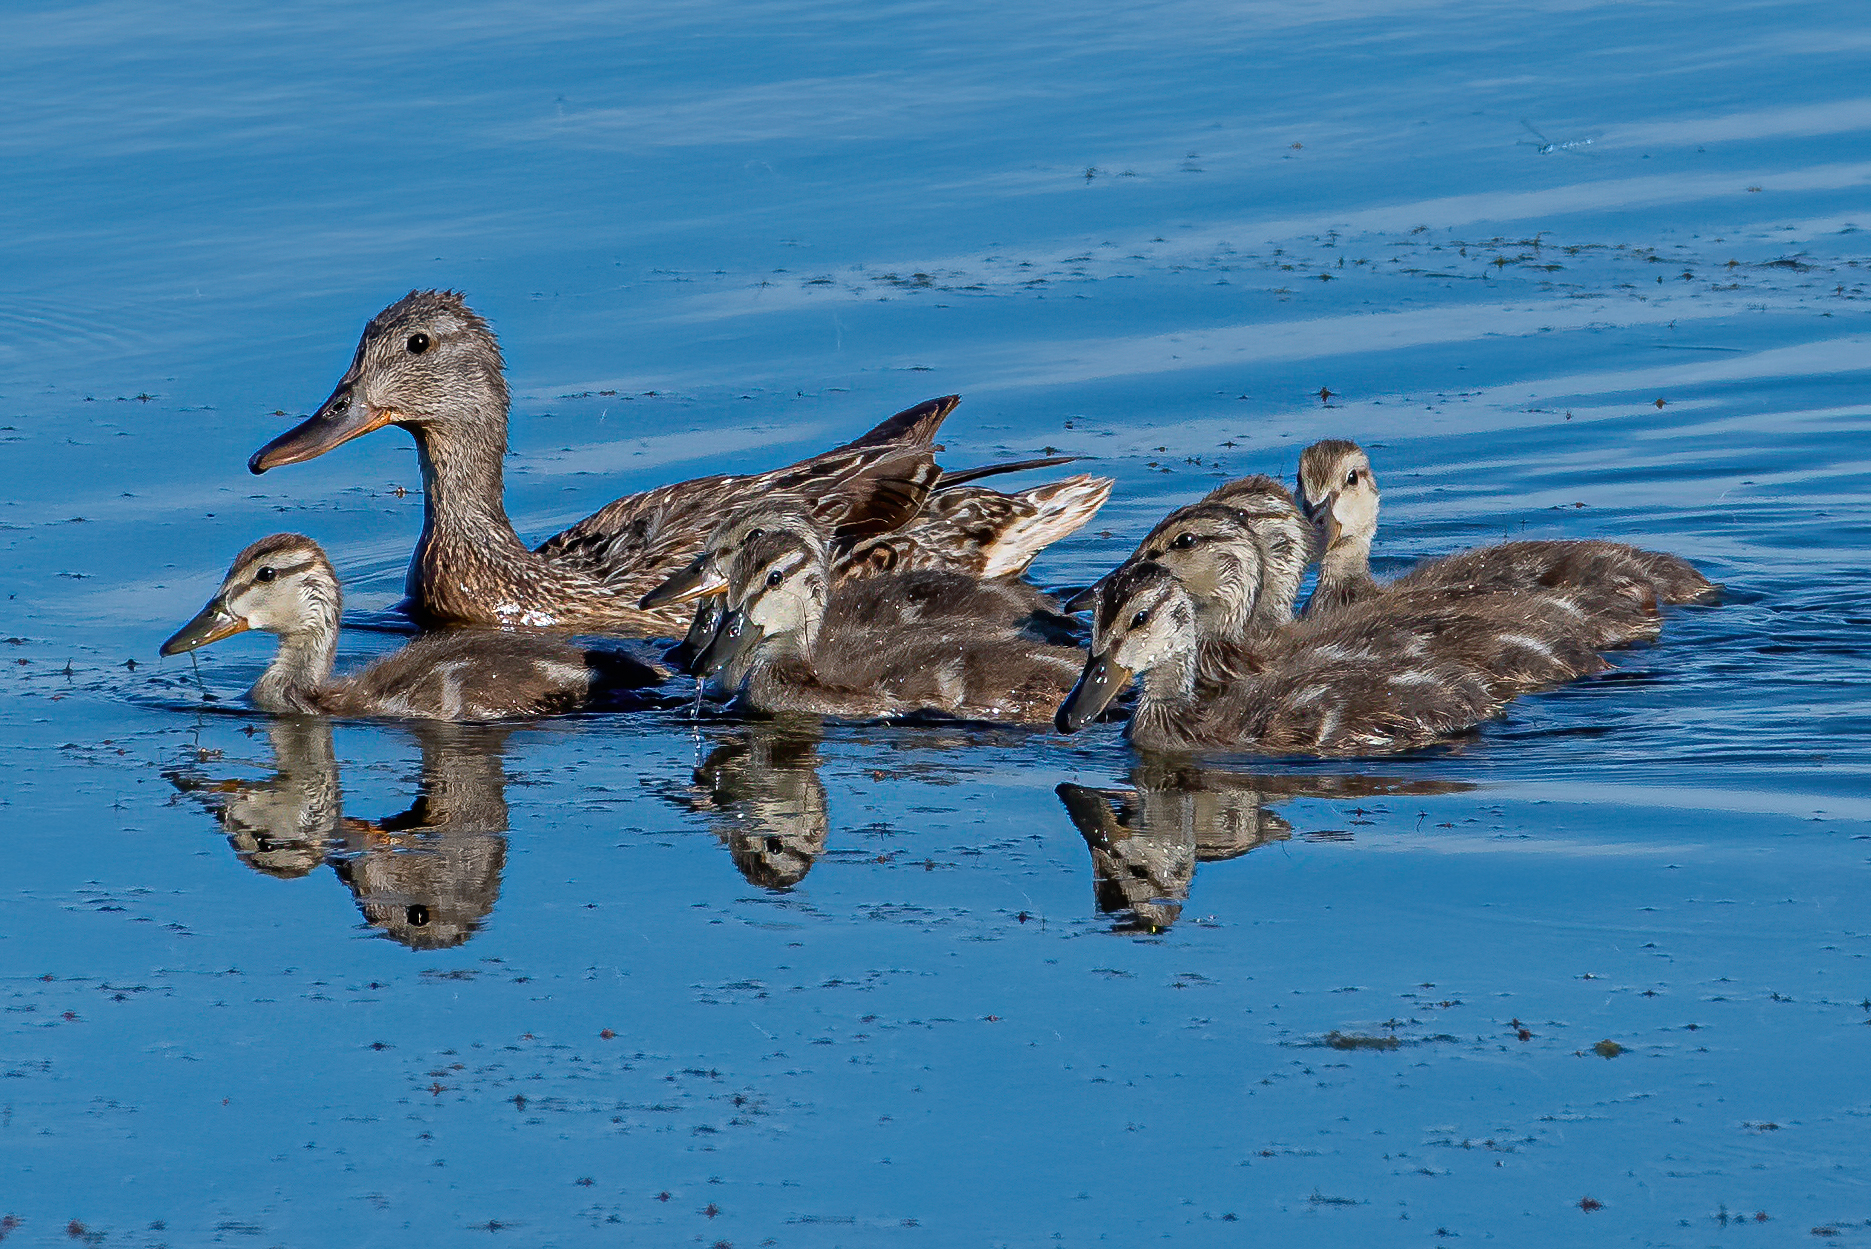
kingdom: Animalia
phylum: Chordata
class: Aves
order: Anseriformes
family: Anatidae
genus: Mareca
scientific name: Mareca strepera
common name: Gadwall
